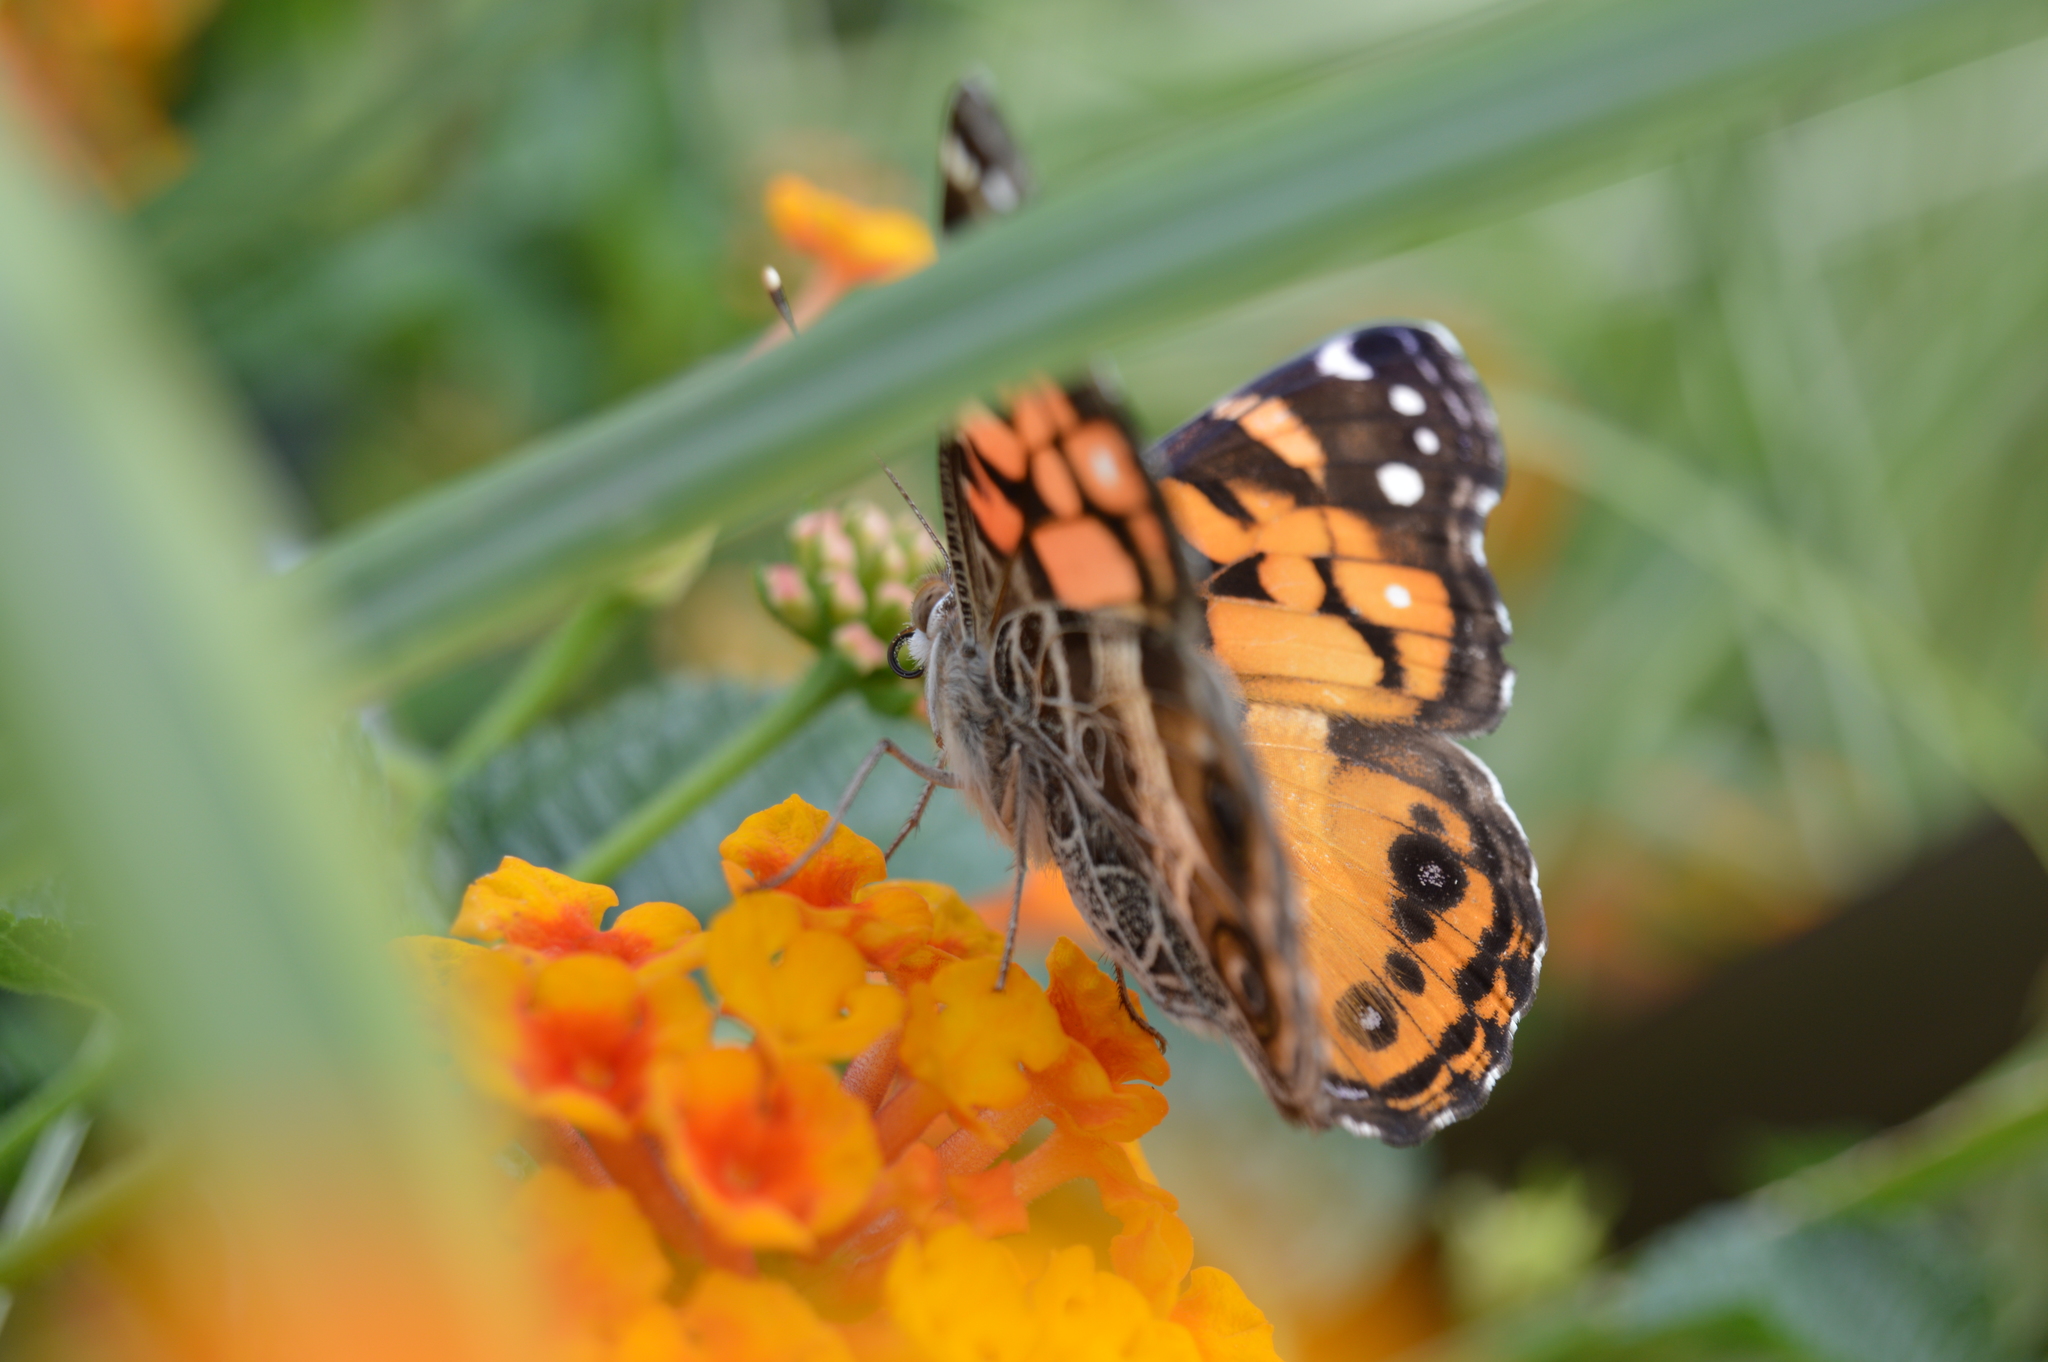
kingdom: Animalia
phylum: Arthropoda
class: Insecta
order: Lepidoptera
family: Nymphalidae
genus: Vanessa
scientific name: Vanessa virginiensis
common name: American lady
